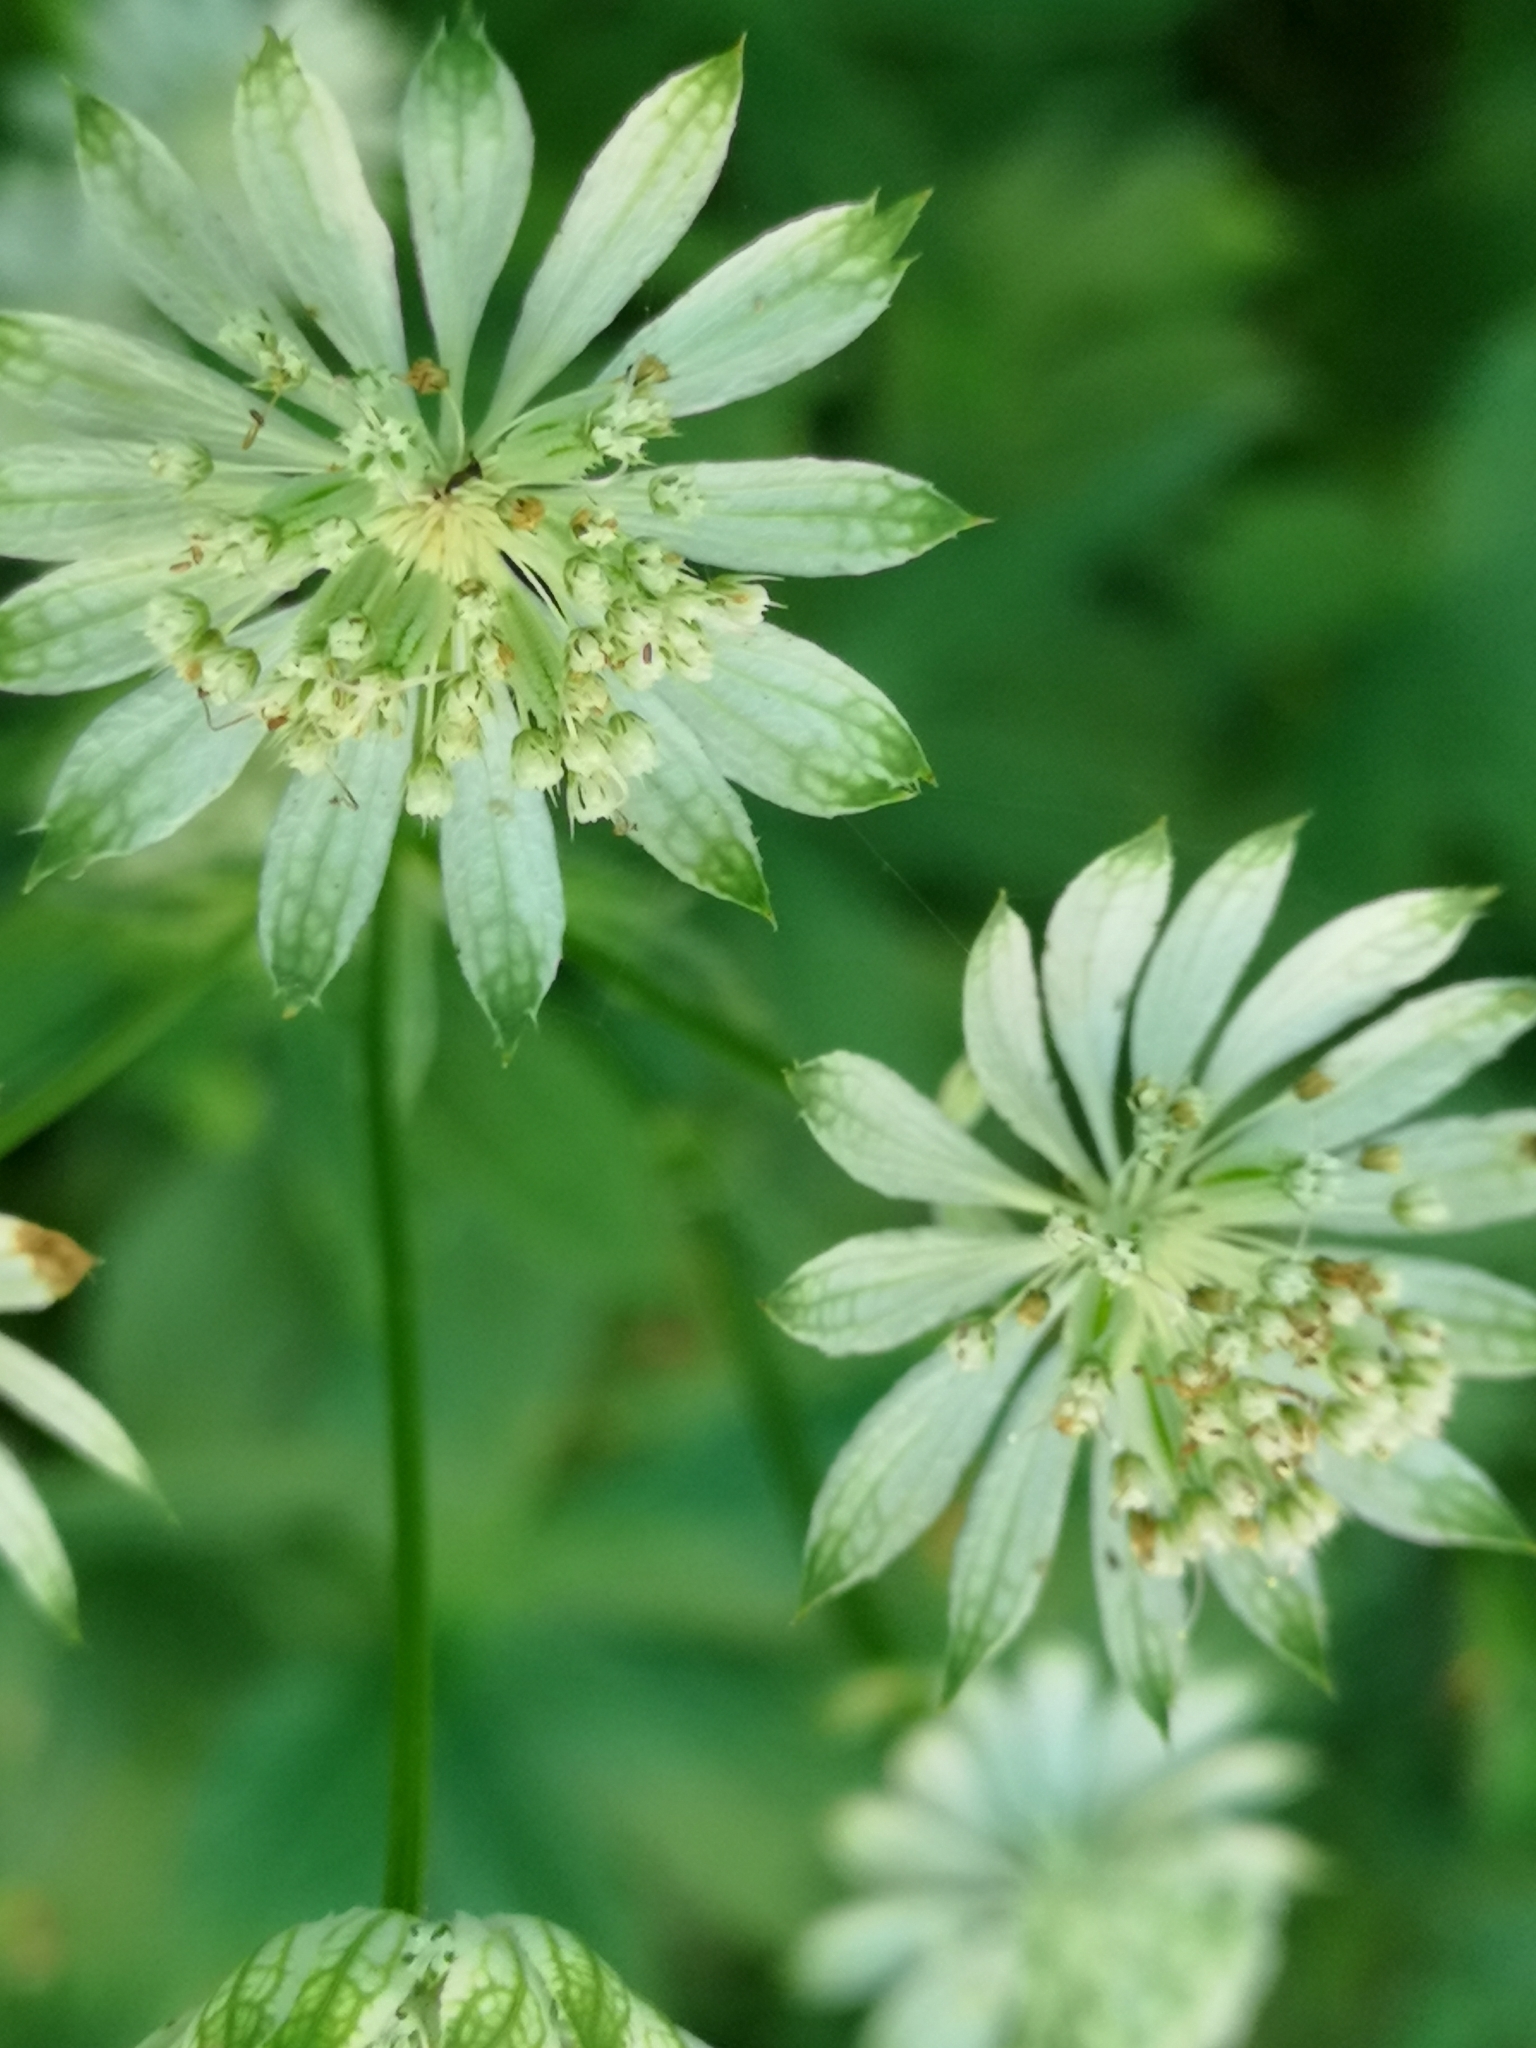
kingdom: Plantae
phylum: Tracheophyta
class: Magnoliopsida
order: Apiales
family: Apiaceae
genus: Astrantia
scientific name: Astrantia major
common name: Greater masterwort
